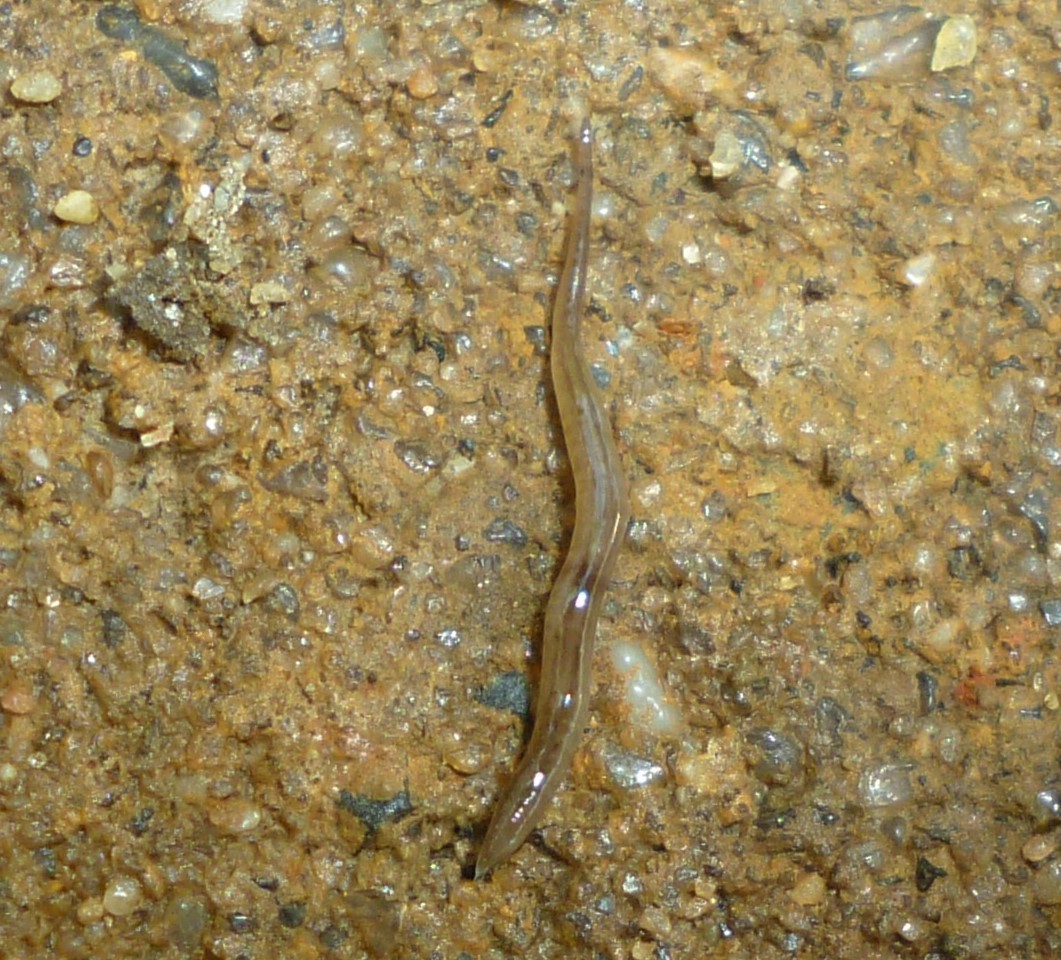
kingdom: Animalia
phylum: Platyhelminthes
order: Tricladida
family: Geoplanidae
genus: Rhynchodemus
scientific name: Rhynchodemus sylvaticus
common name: A flatworm
